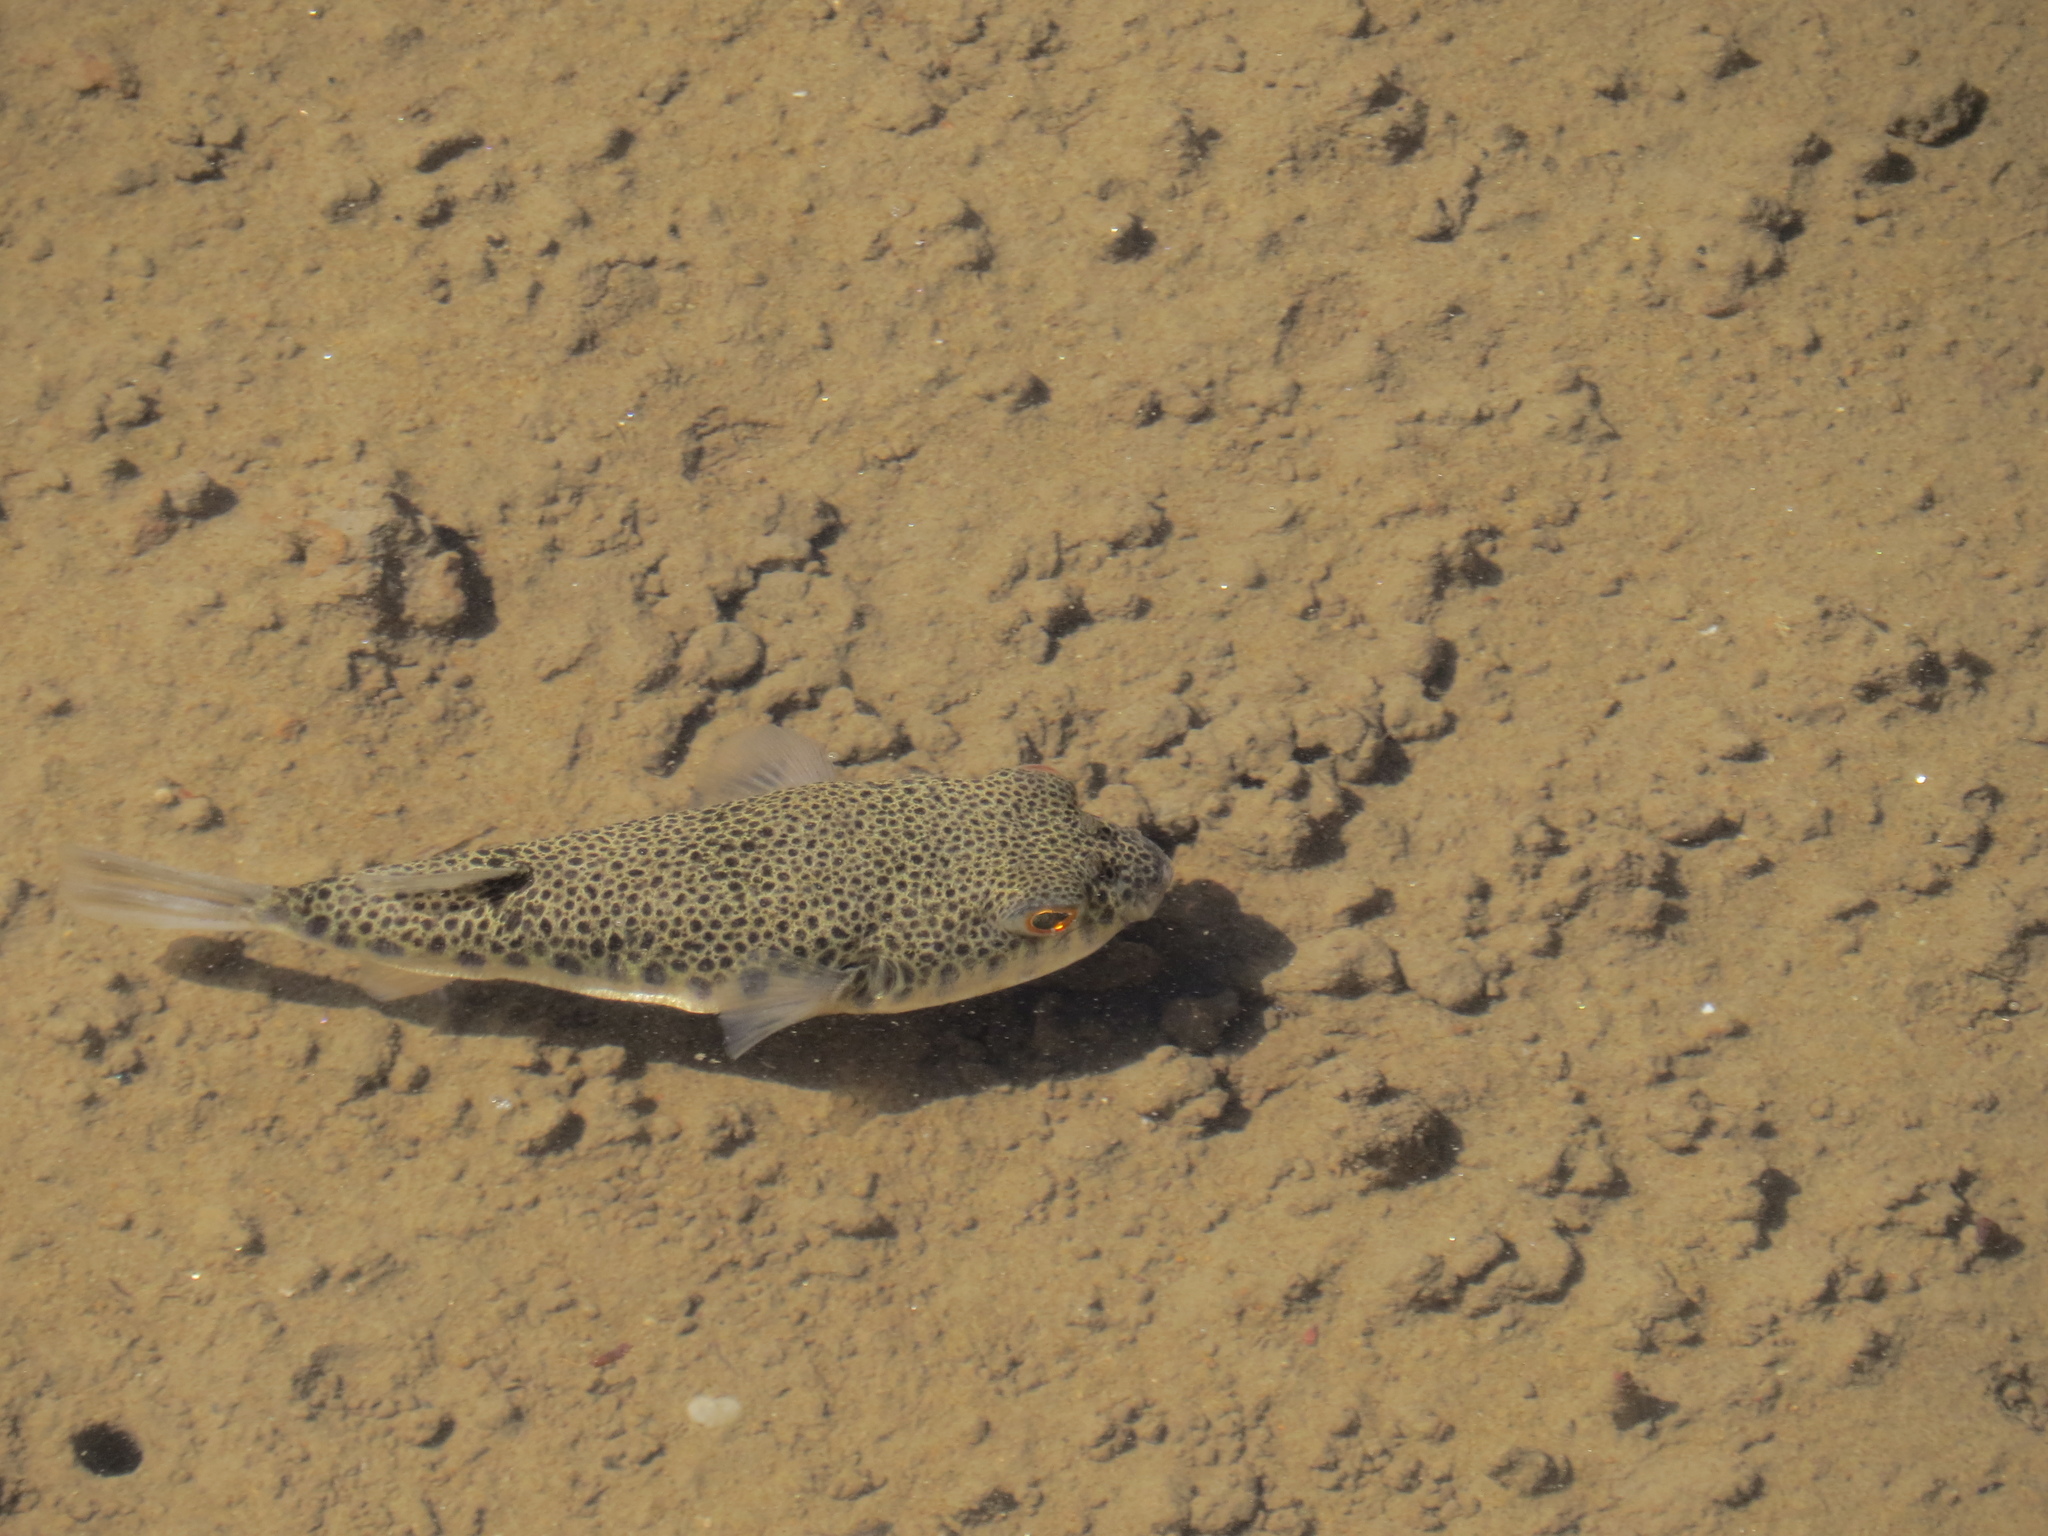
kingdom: Animalia
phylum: Chordata
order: Tetraodontiformes
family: Tetraodontidae
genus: Tetractenos
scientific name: Tetractenos hamiltoni
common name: Common toadfish
